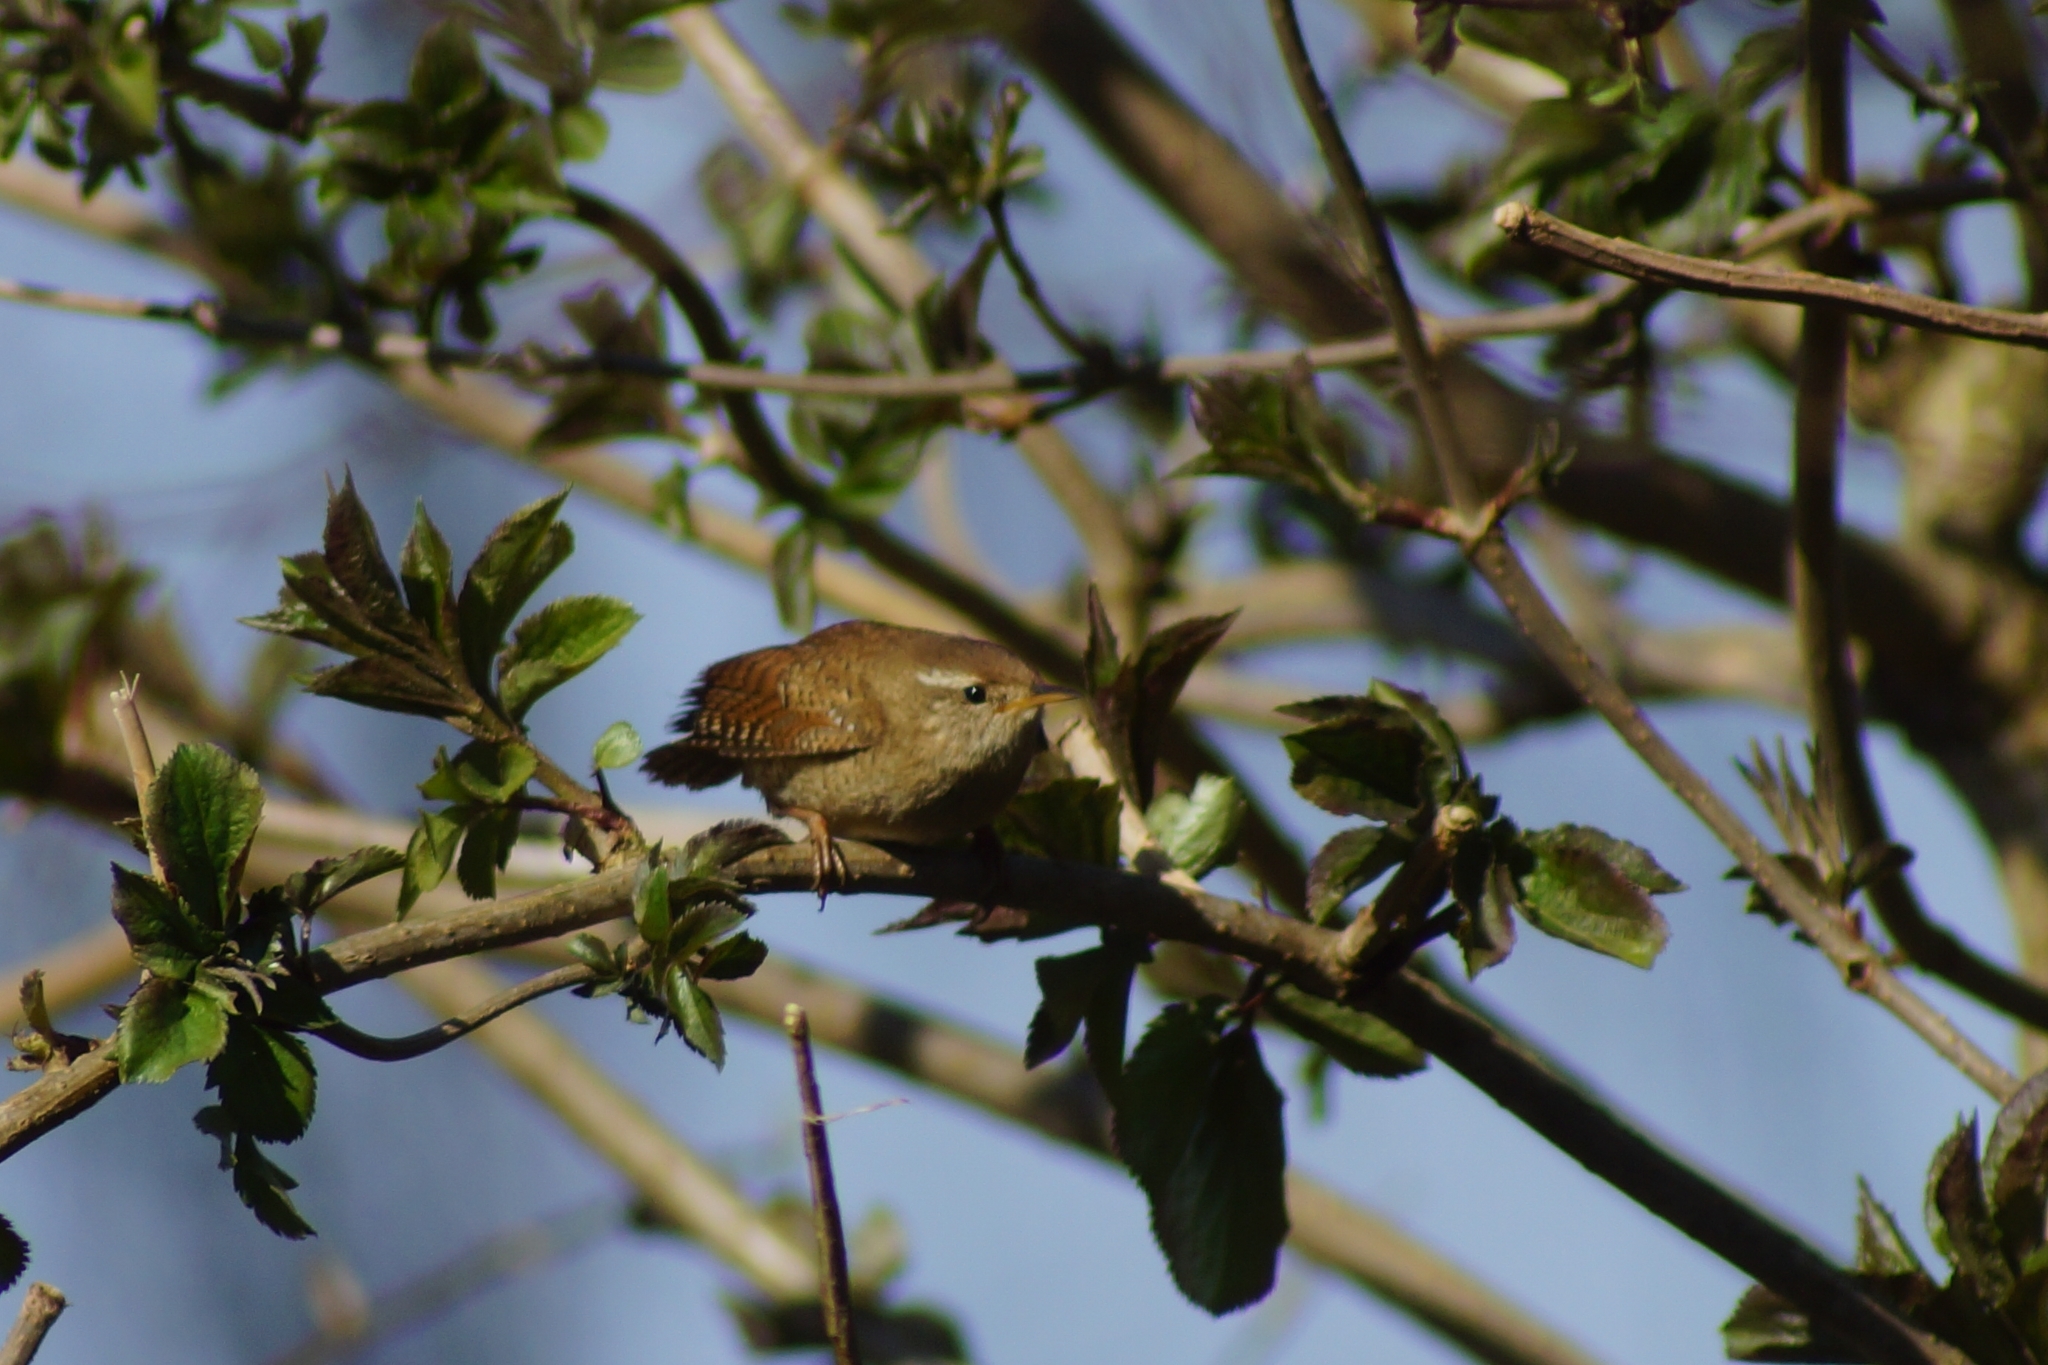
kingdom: Animalia
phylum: Chordata
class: Aves
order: Passeriformes
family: Troglodytidae
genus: Troglodytes
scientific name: Troglodytes troglodytes
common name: Eurasian wren
